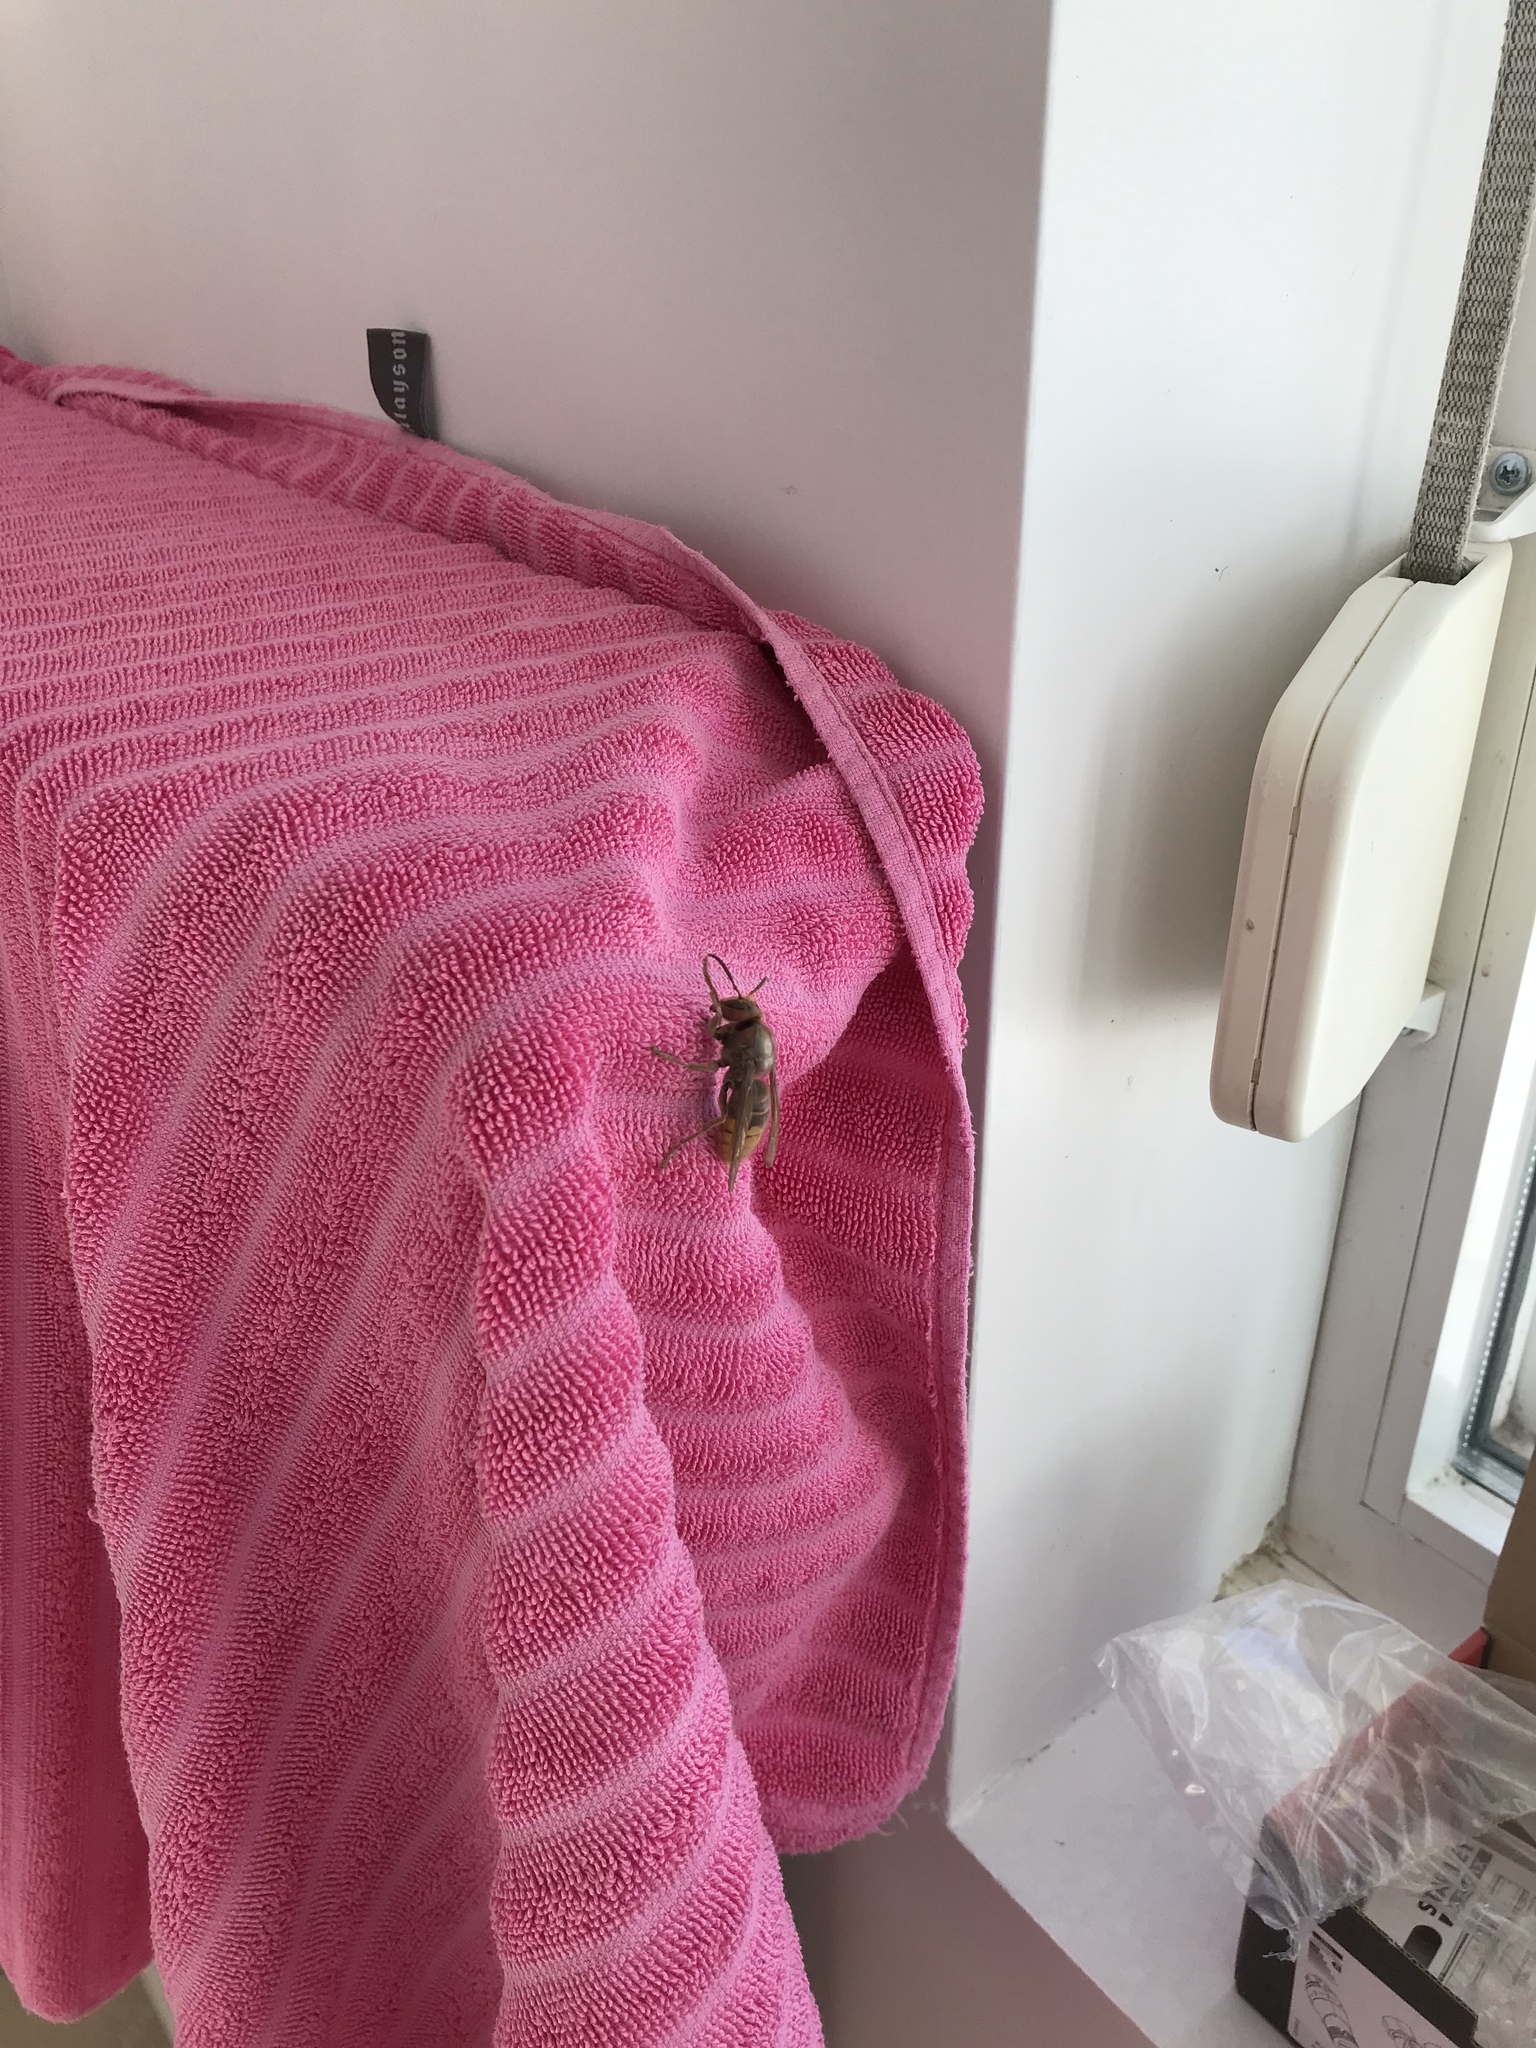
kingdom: Animalia
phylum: Arthropoda
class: Insecta
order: Hymenoptera
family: Vespidae
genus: Vespa
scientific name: Vespa crabro
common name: Hornet
